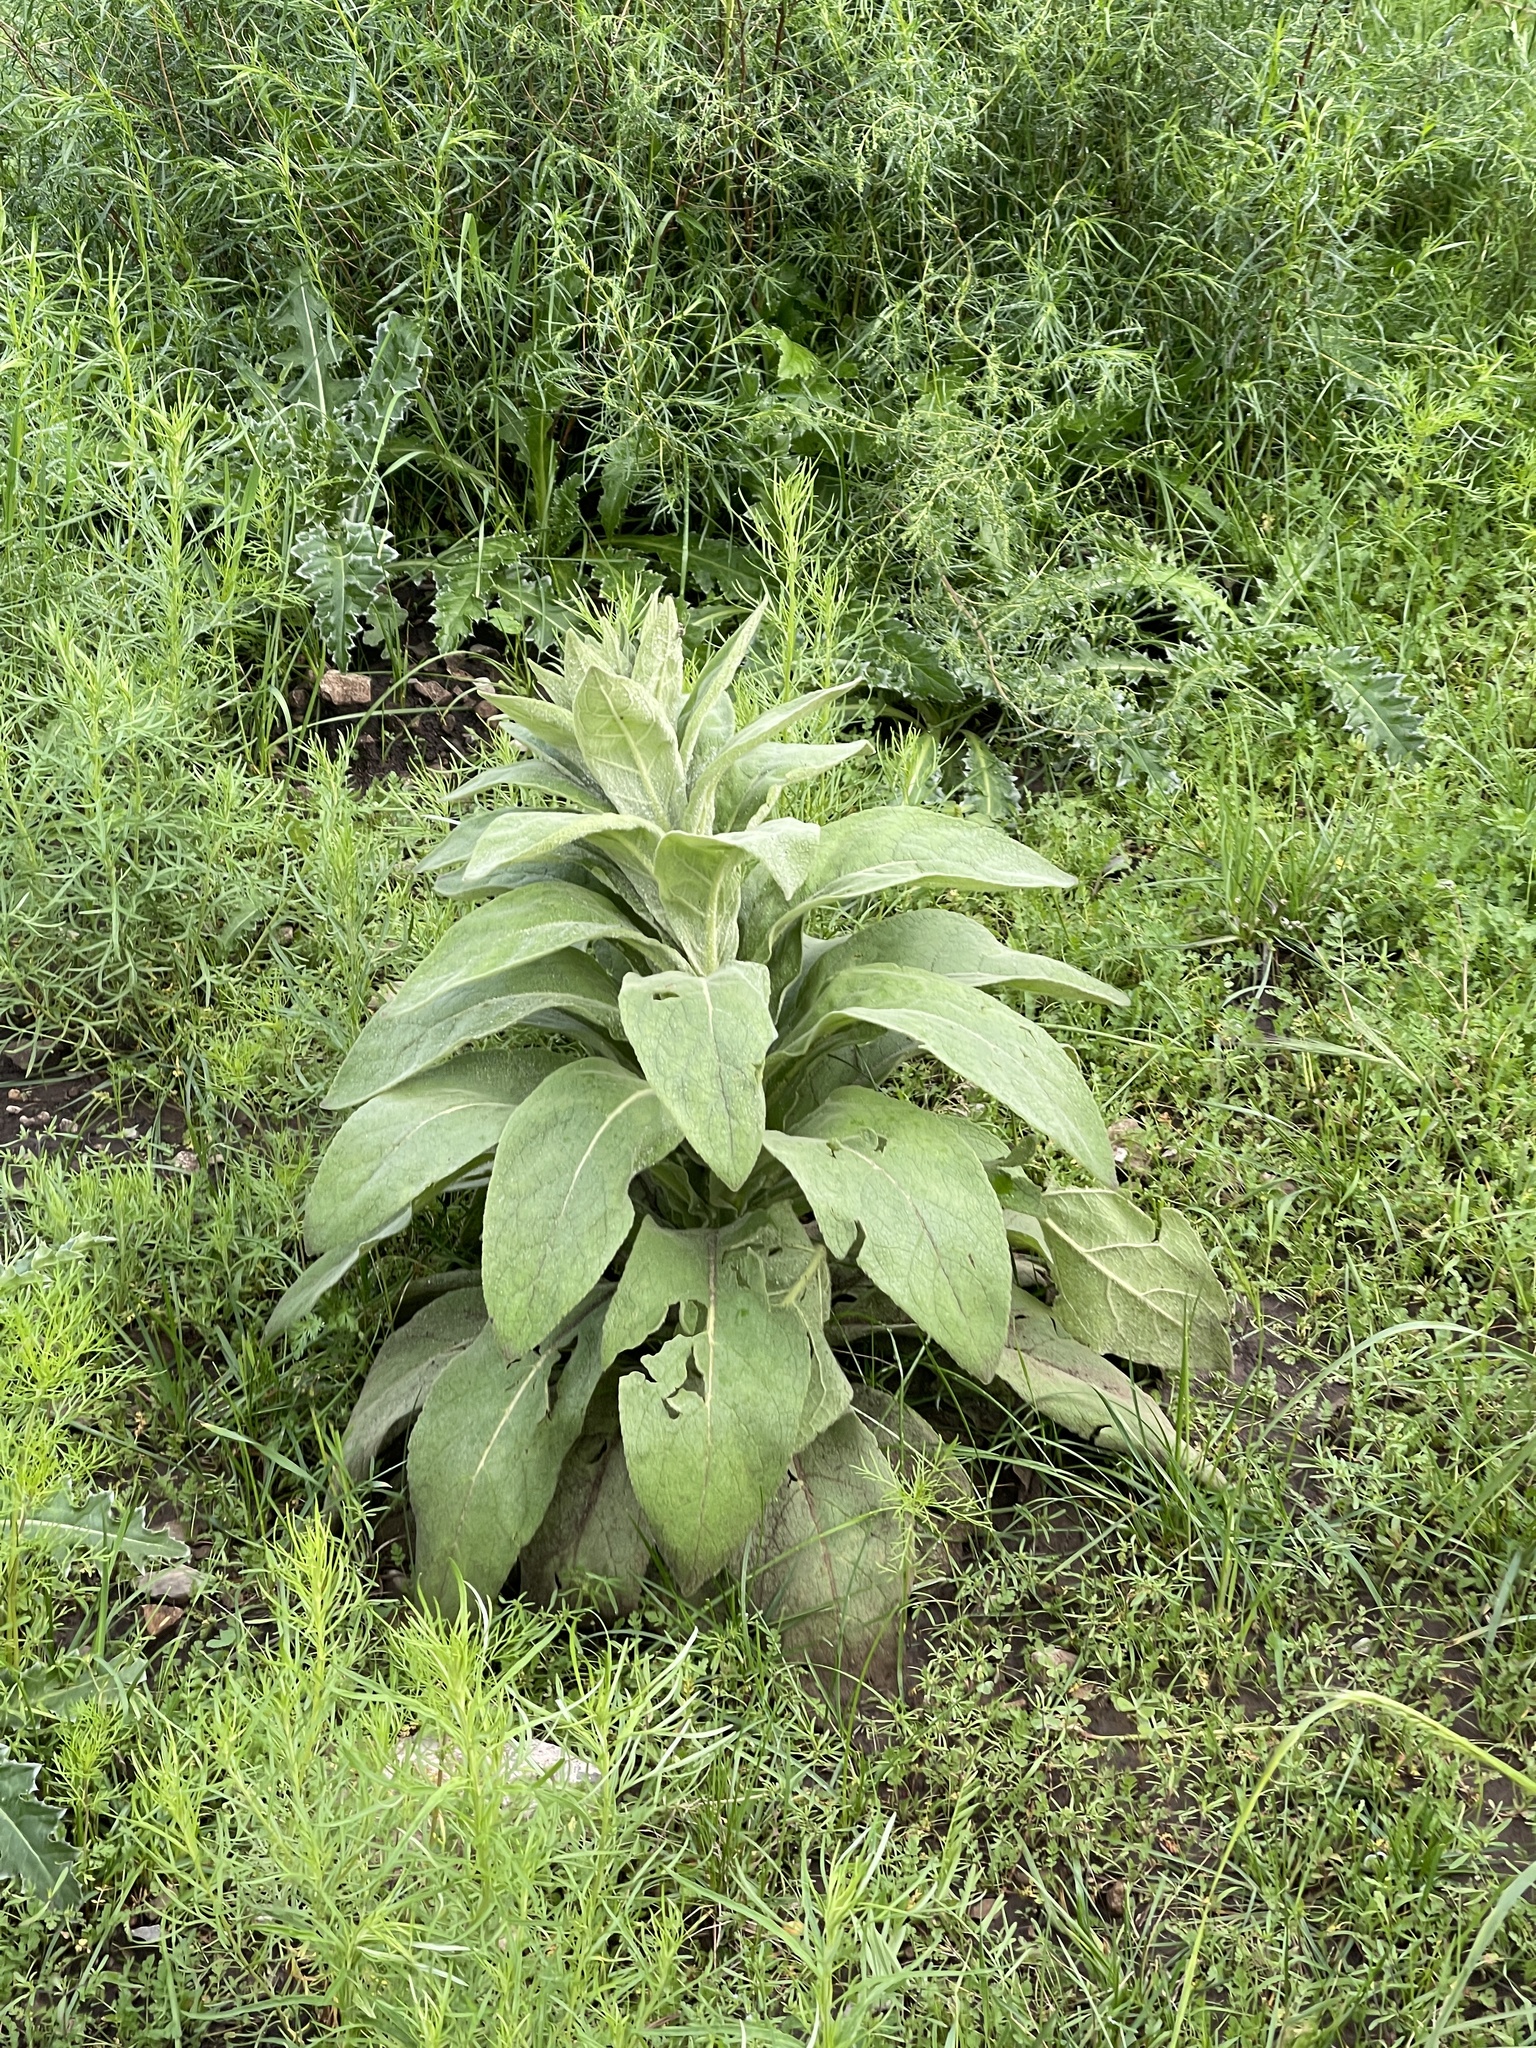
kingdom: Plantae
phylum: Tracheophyta
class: Magnoliopsida
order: Lamiales
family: Scrophulariaceae
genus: Verbascum
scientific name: Verbascum thapsus
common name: Common mullein
